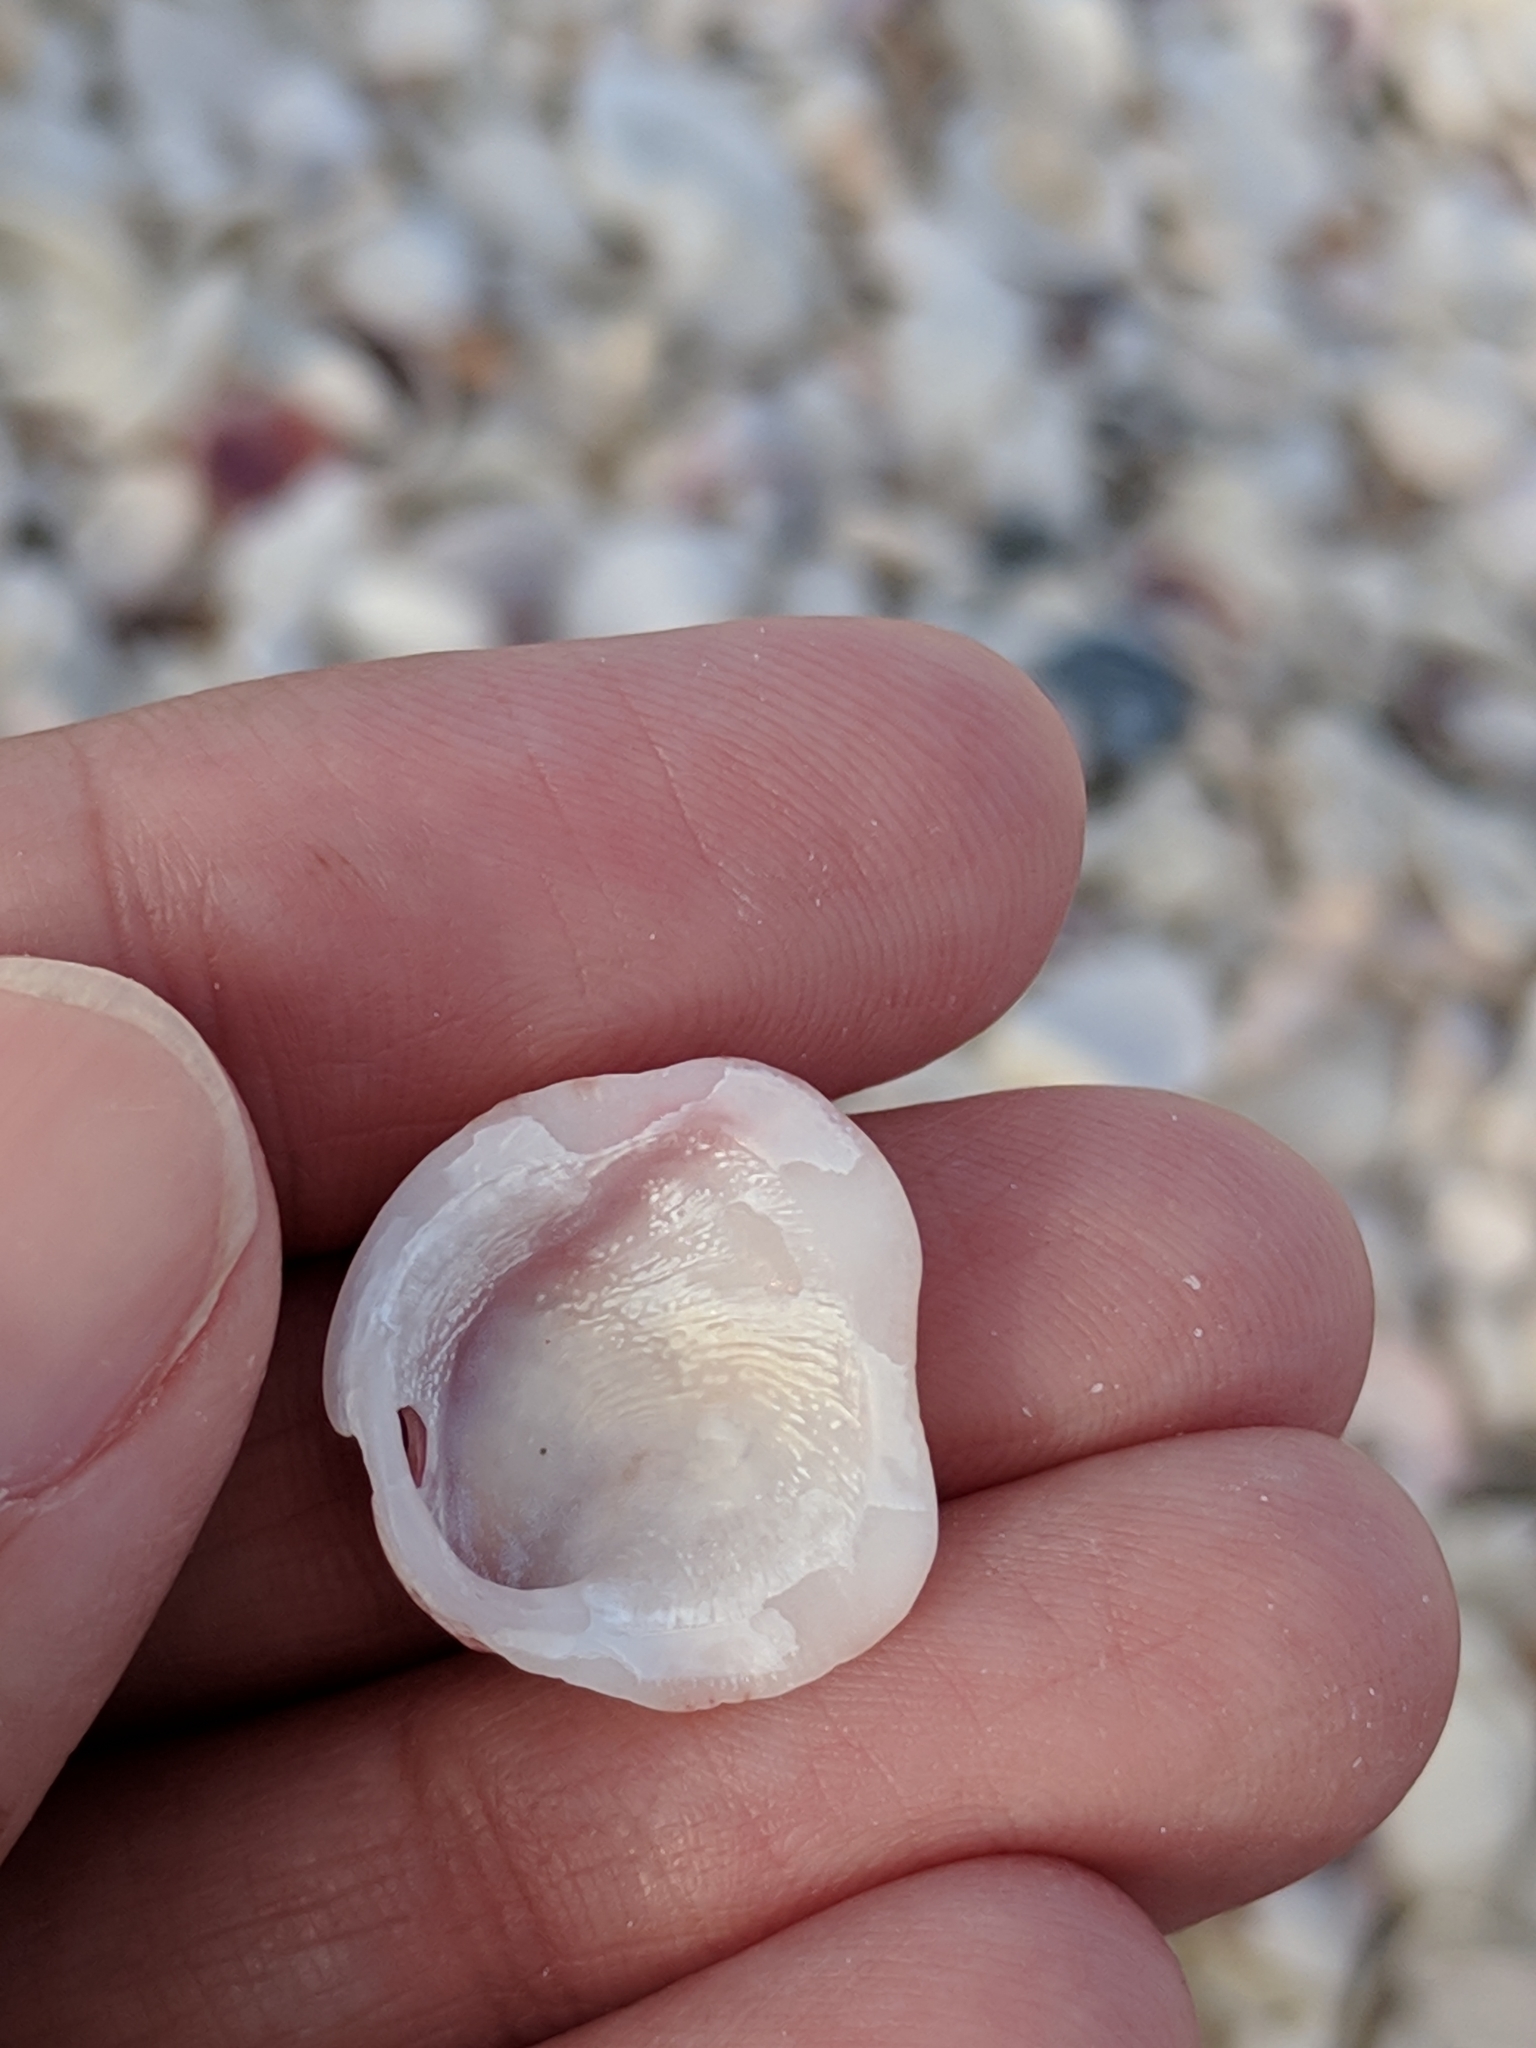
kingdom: Animalia
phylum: Mollusca
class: Bivalvia
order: Venerida
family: Chamidae
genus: Chama
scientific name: Chama congregata
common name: Corrugate jewelbox
